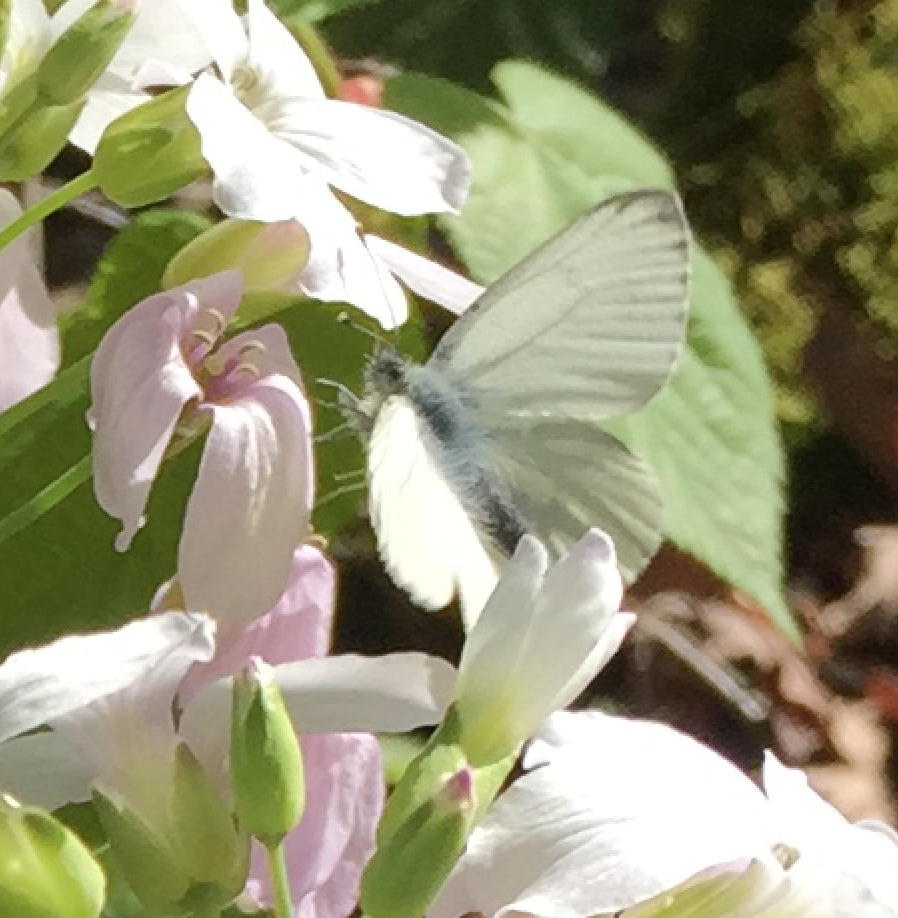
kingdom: Animalia
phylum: Arthropoda
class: Insecta
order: Lepidoptera
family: Pieridae
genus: Pieris
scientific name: Pieris napi
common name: Green-veined white
